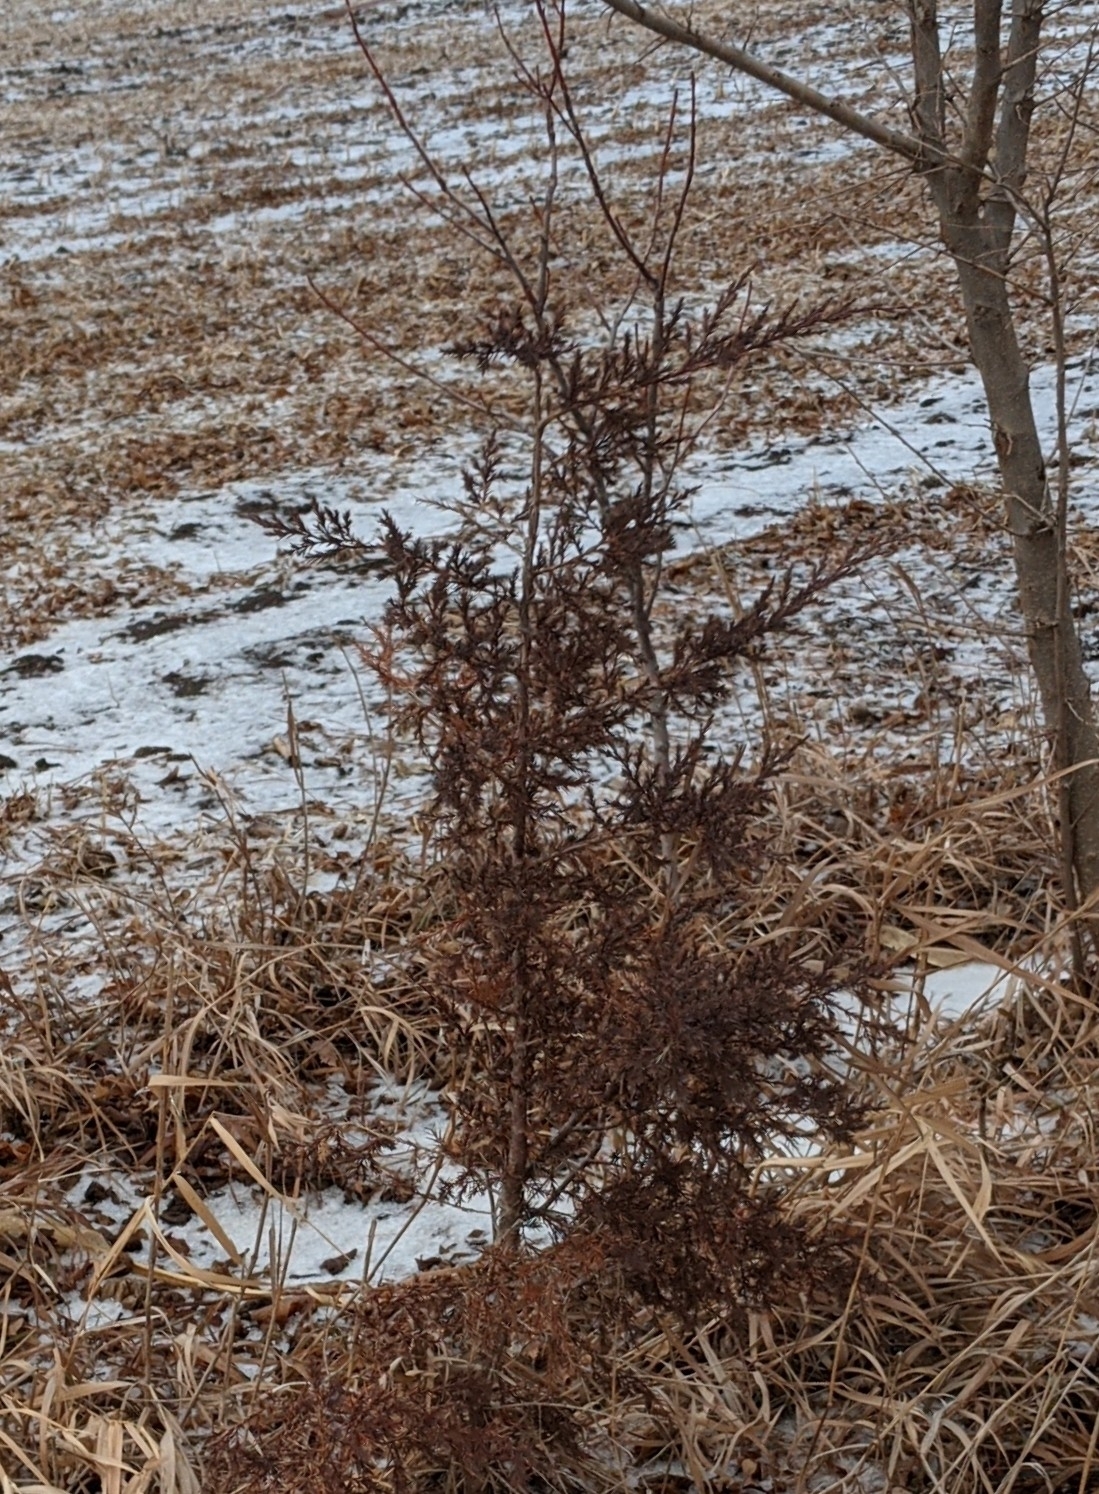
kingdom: Plantae
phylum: Tracheophyta
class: Pinopsida
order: Pinales
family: Cupressaceae
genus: Juniperus
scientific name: Juniperus virginiana
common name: Red juniper
